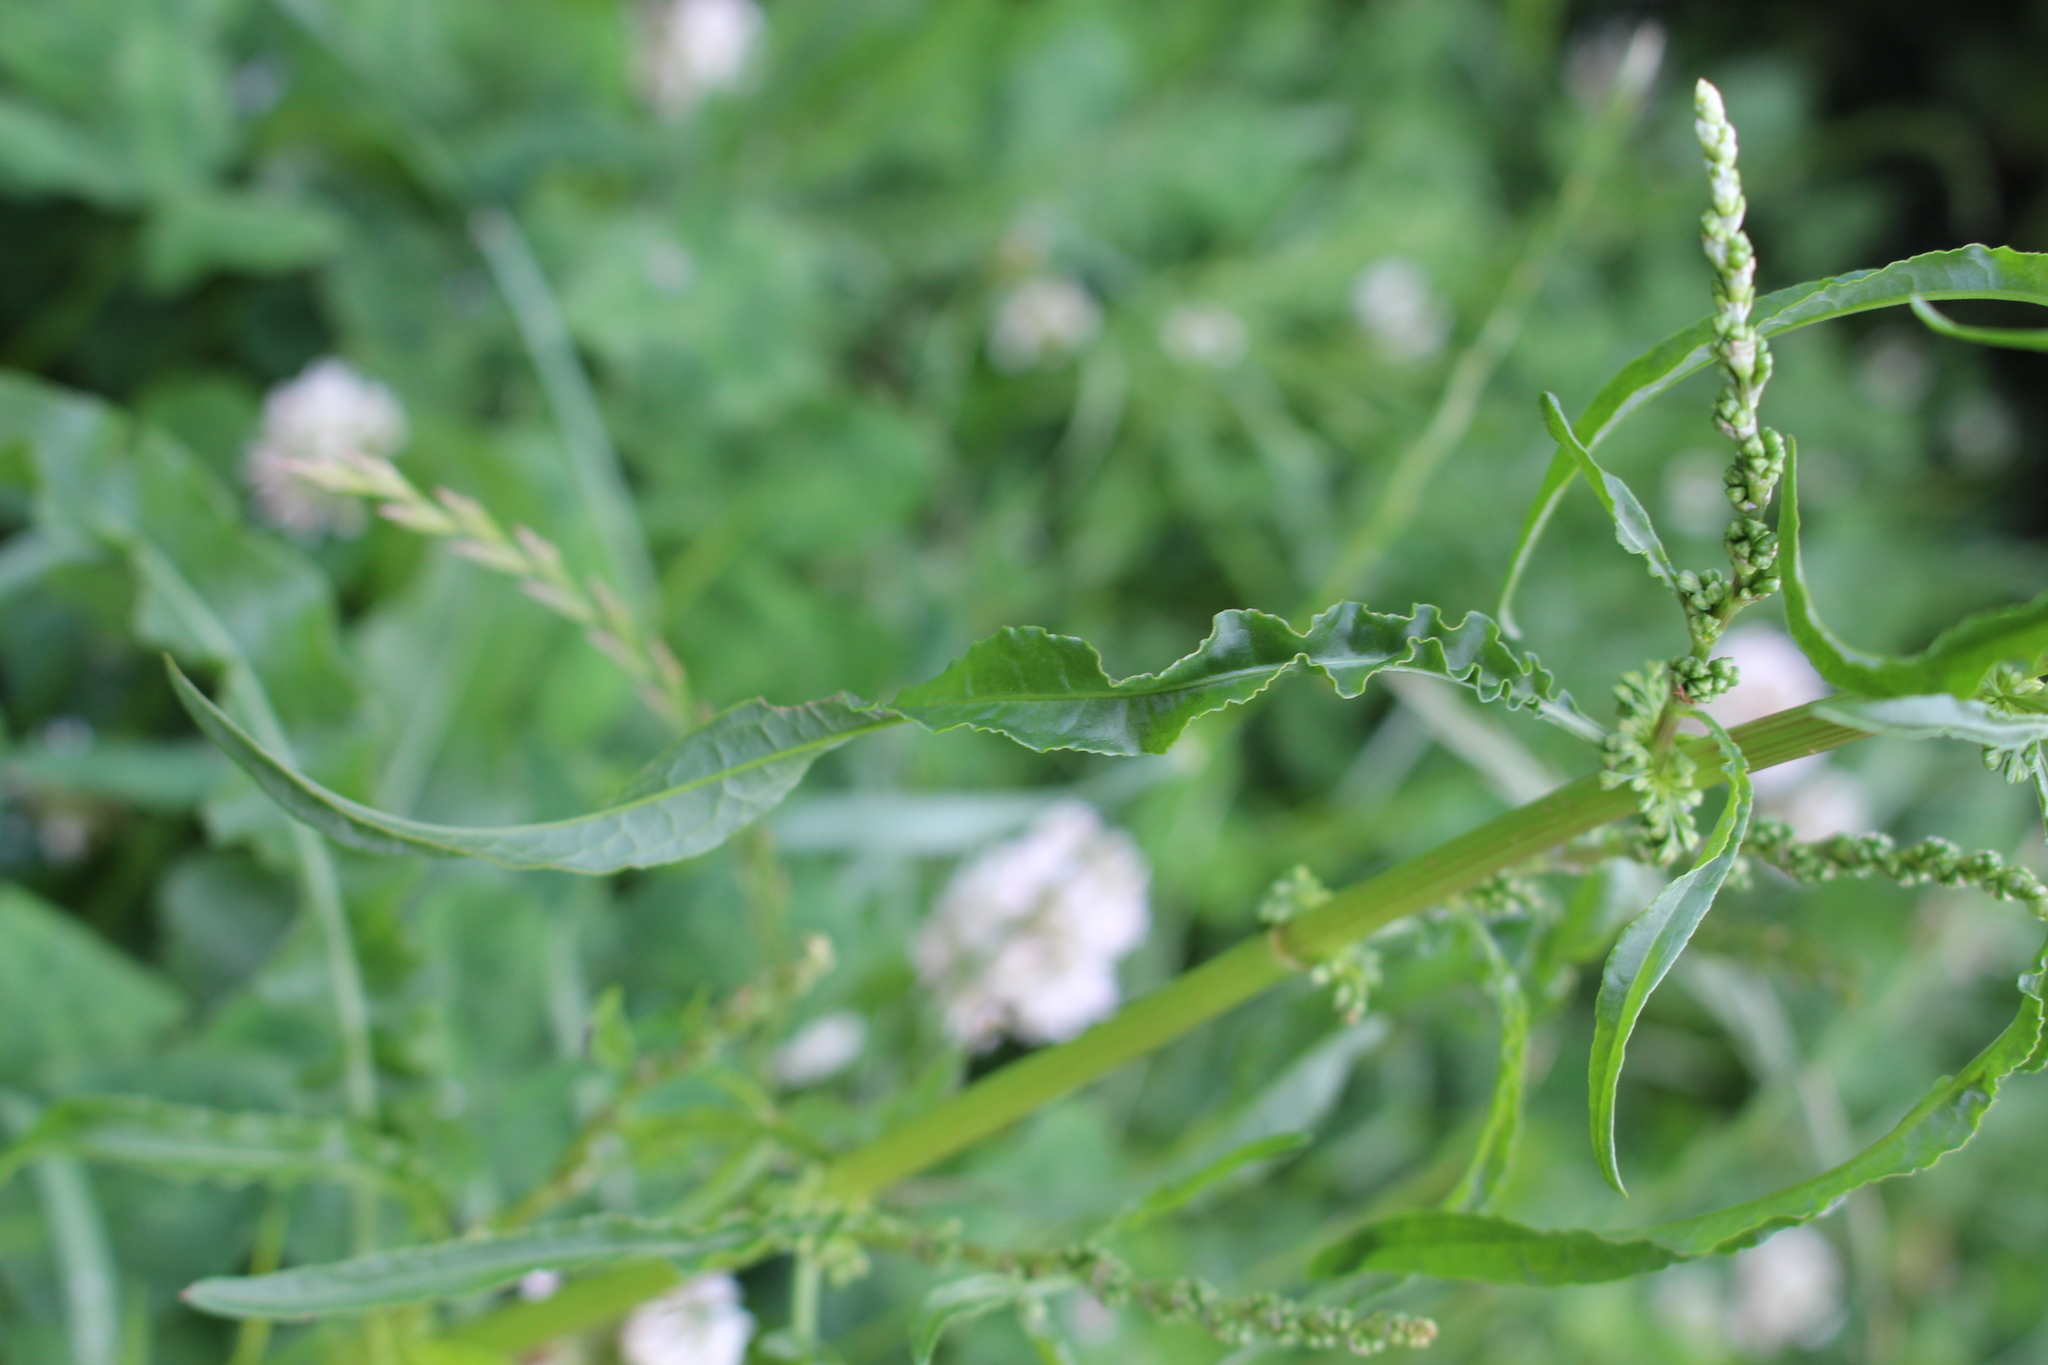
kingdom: Plantae
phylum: Tracheophyta
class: Magnoliopsida
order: Caryophyllales
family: Polygonaceae
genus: Rumex
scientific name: Rumex crispus
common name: Curled dock
